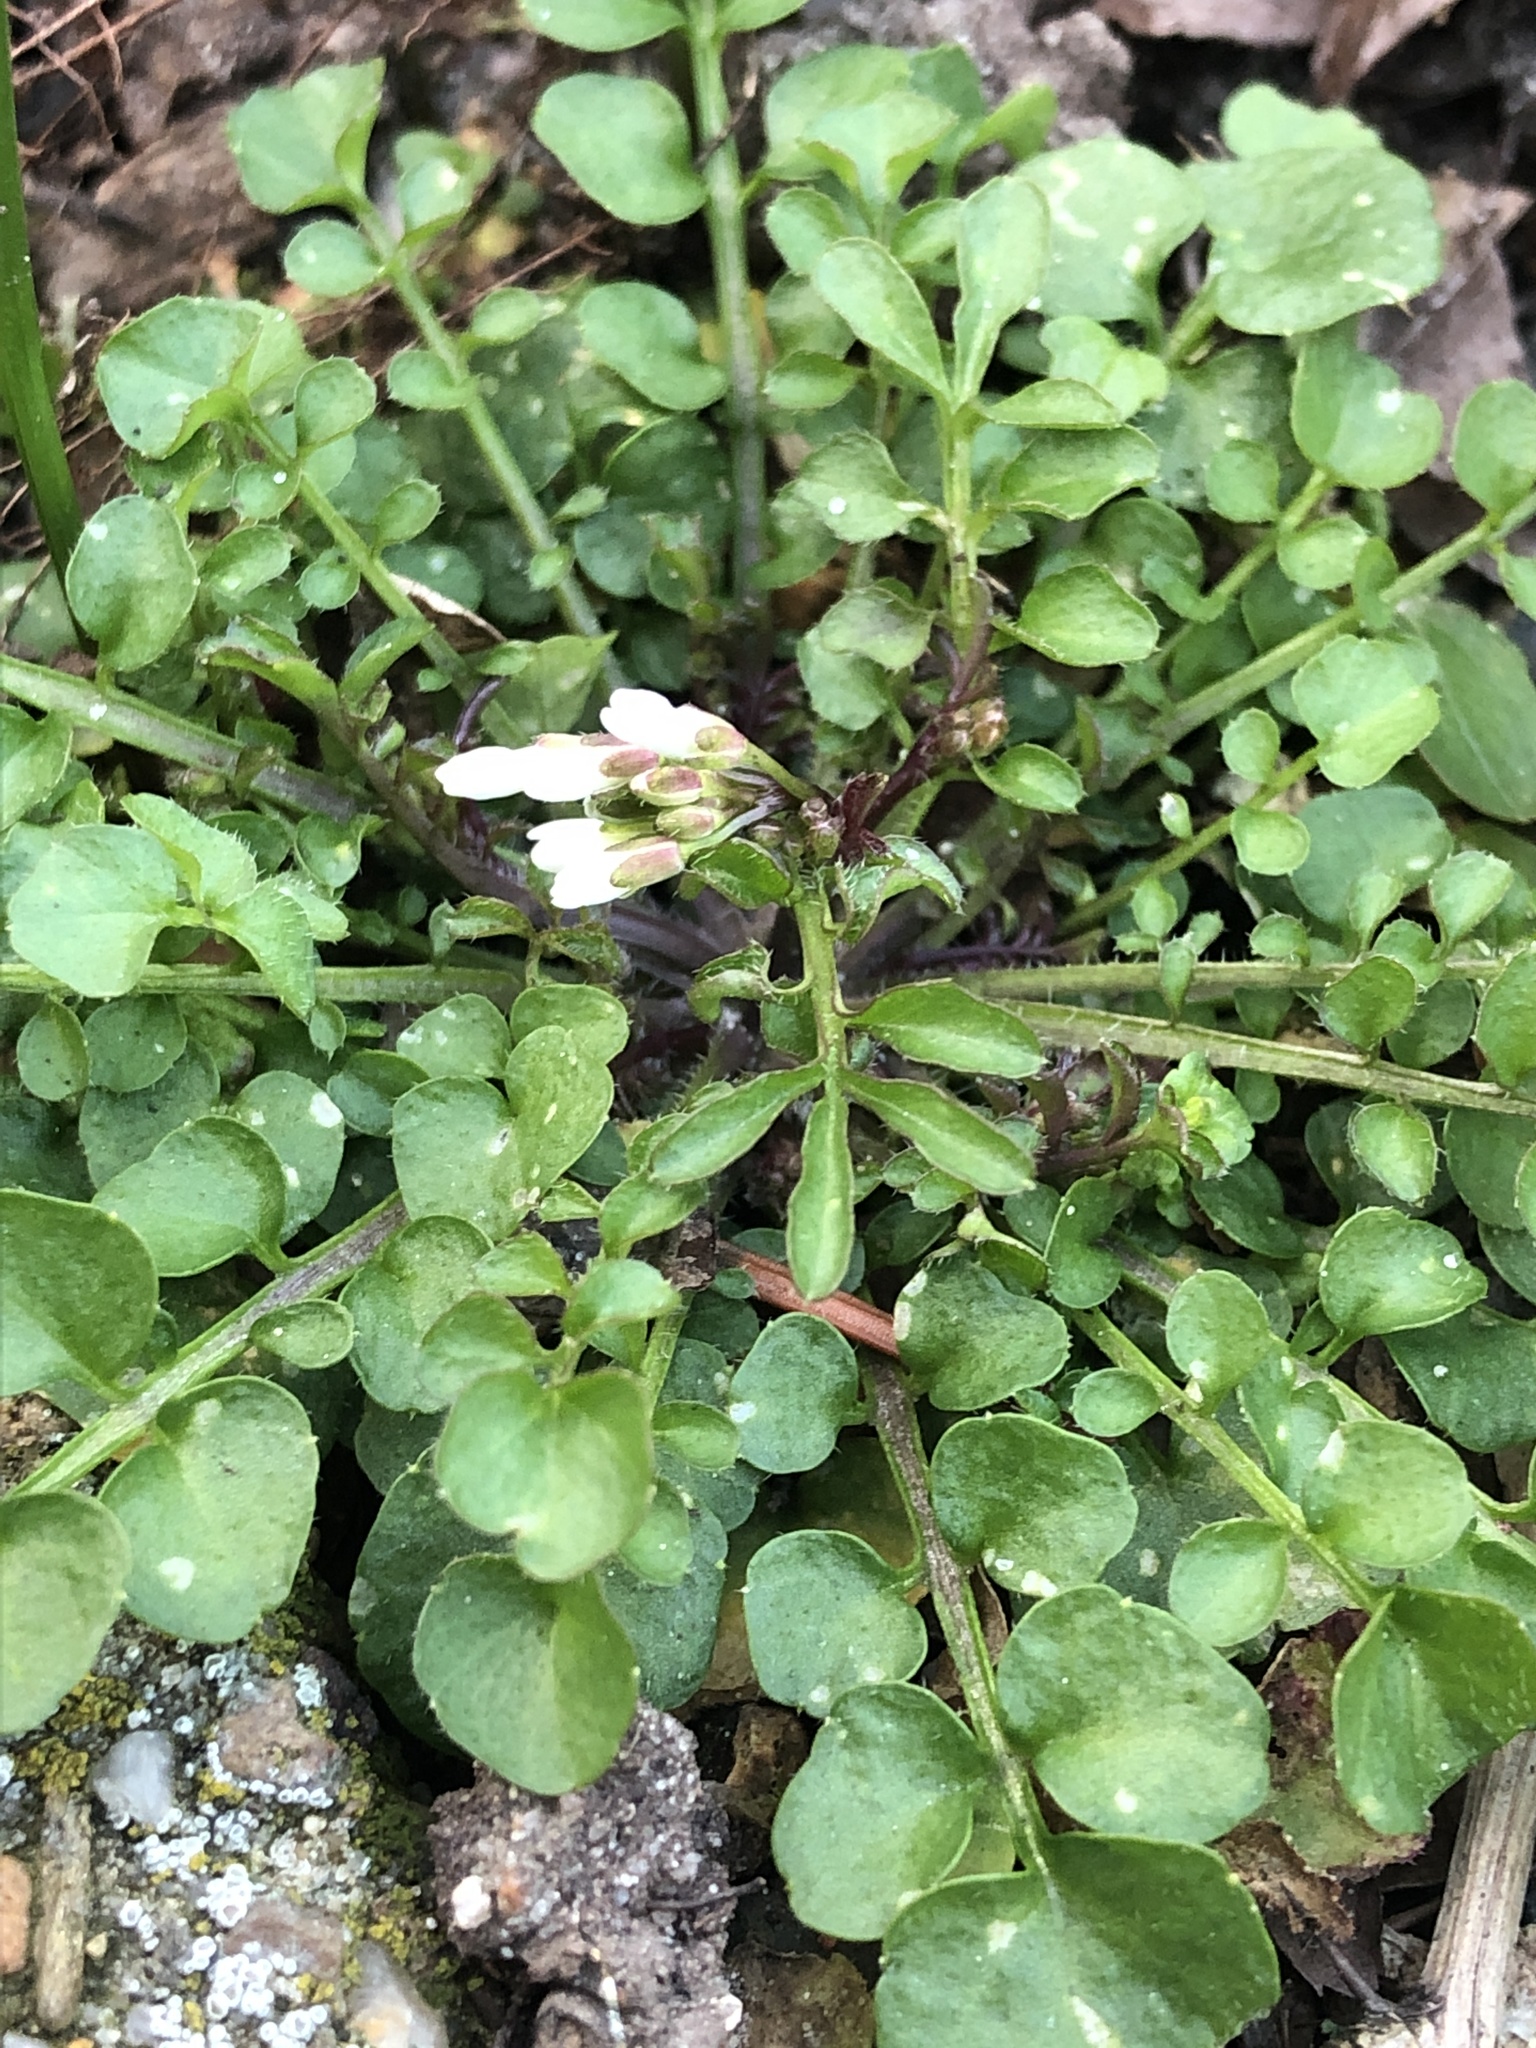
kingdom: Plantae
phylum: Tracheophyta
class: Magnoliopsida
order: Brassicales
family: Brassicaceae
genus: Cardamine
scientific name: Cardamine hirsuta
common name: Hairy bittercress
